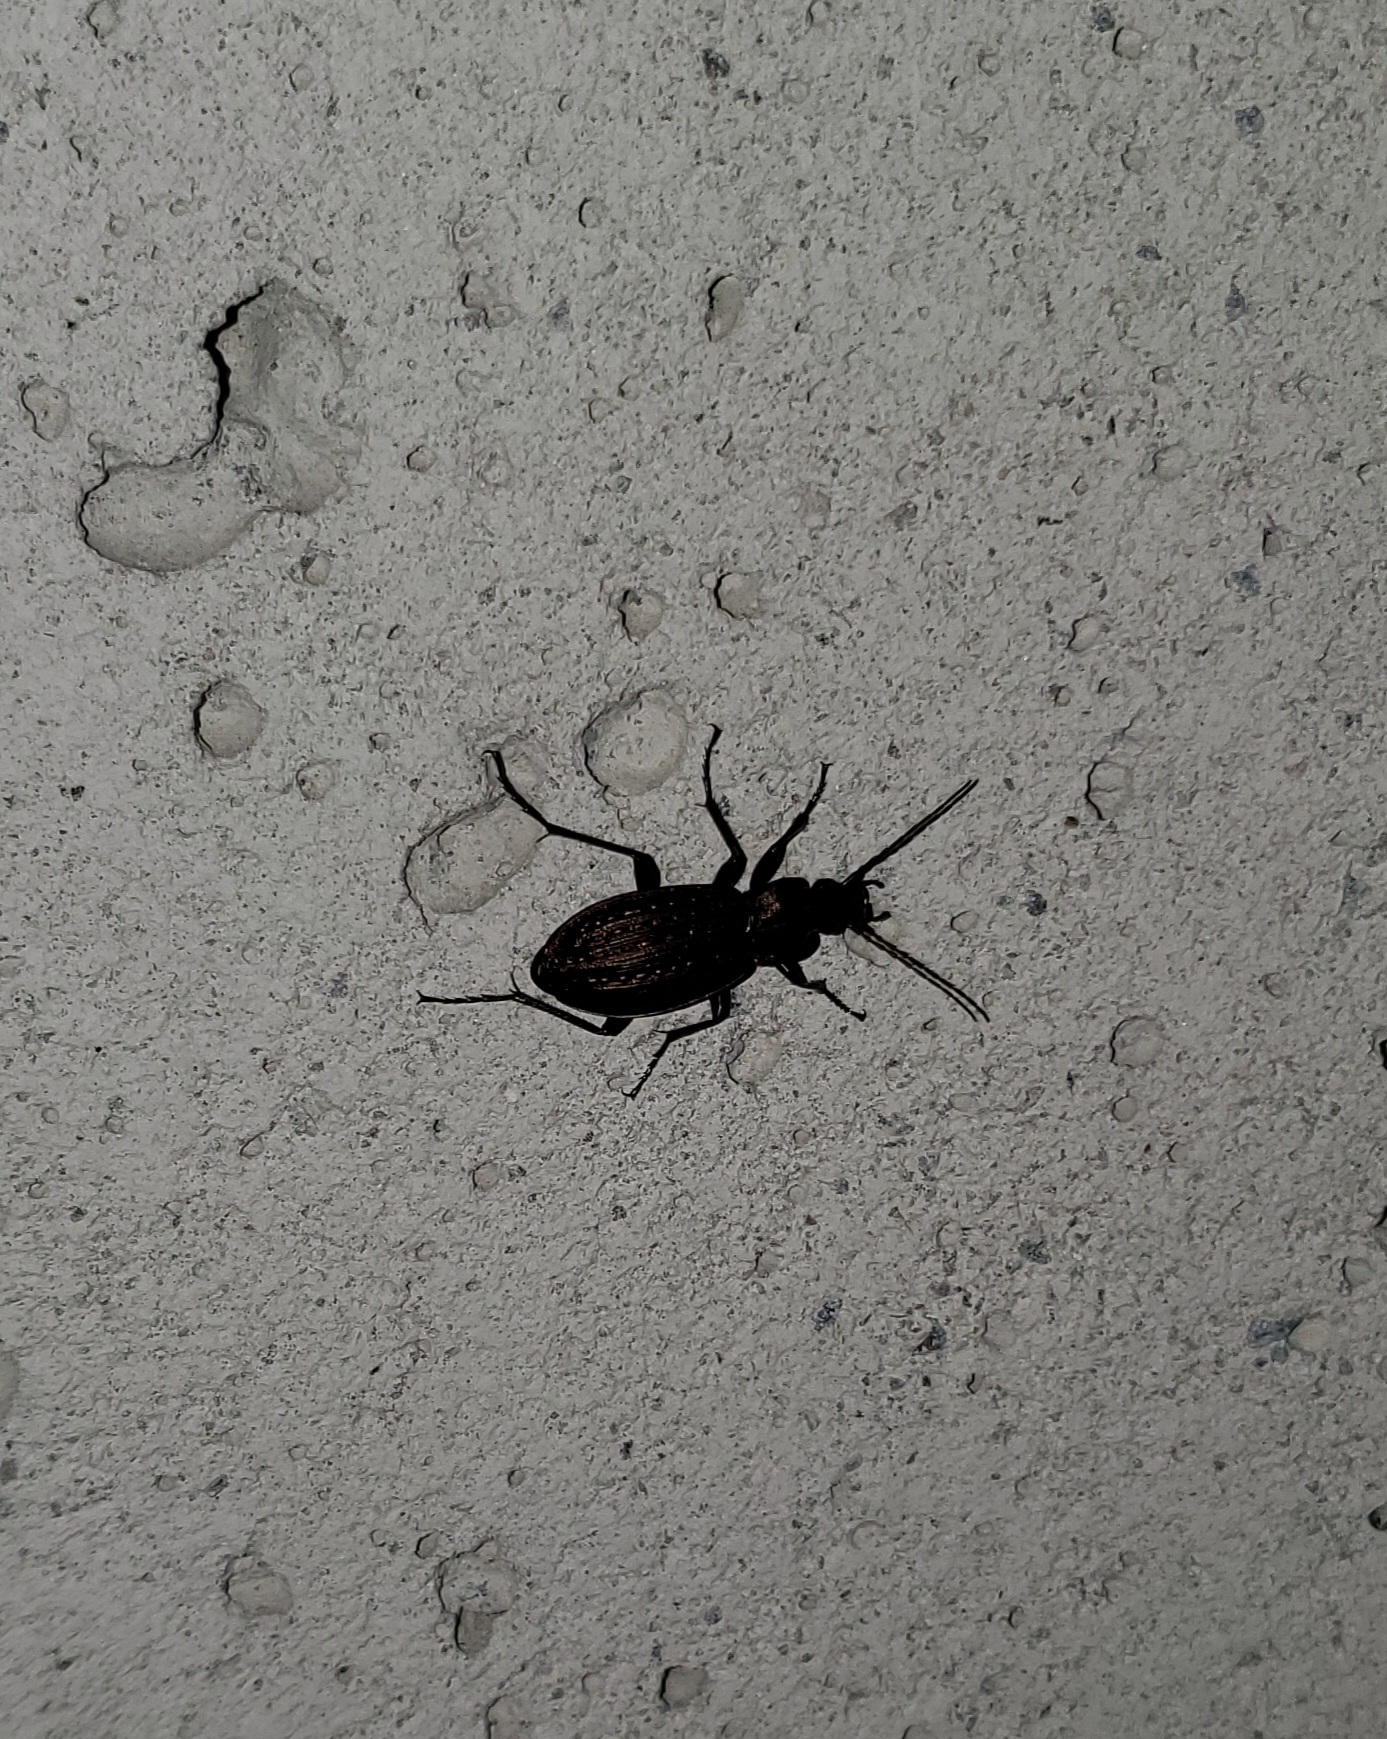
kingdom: Animalia
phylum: Arthropoda
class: Insecta
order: Coleoptera
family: Carabidae
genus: Carabus
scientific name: Carabus granulatus
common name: Granulate ground beetle
